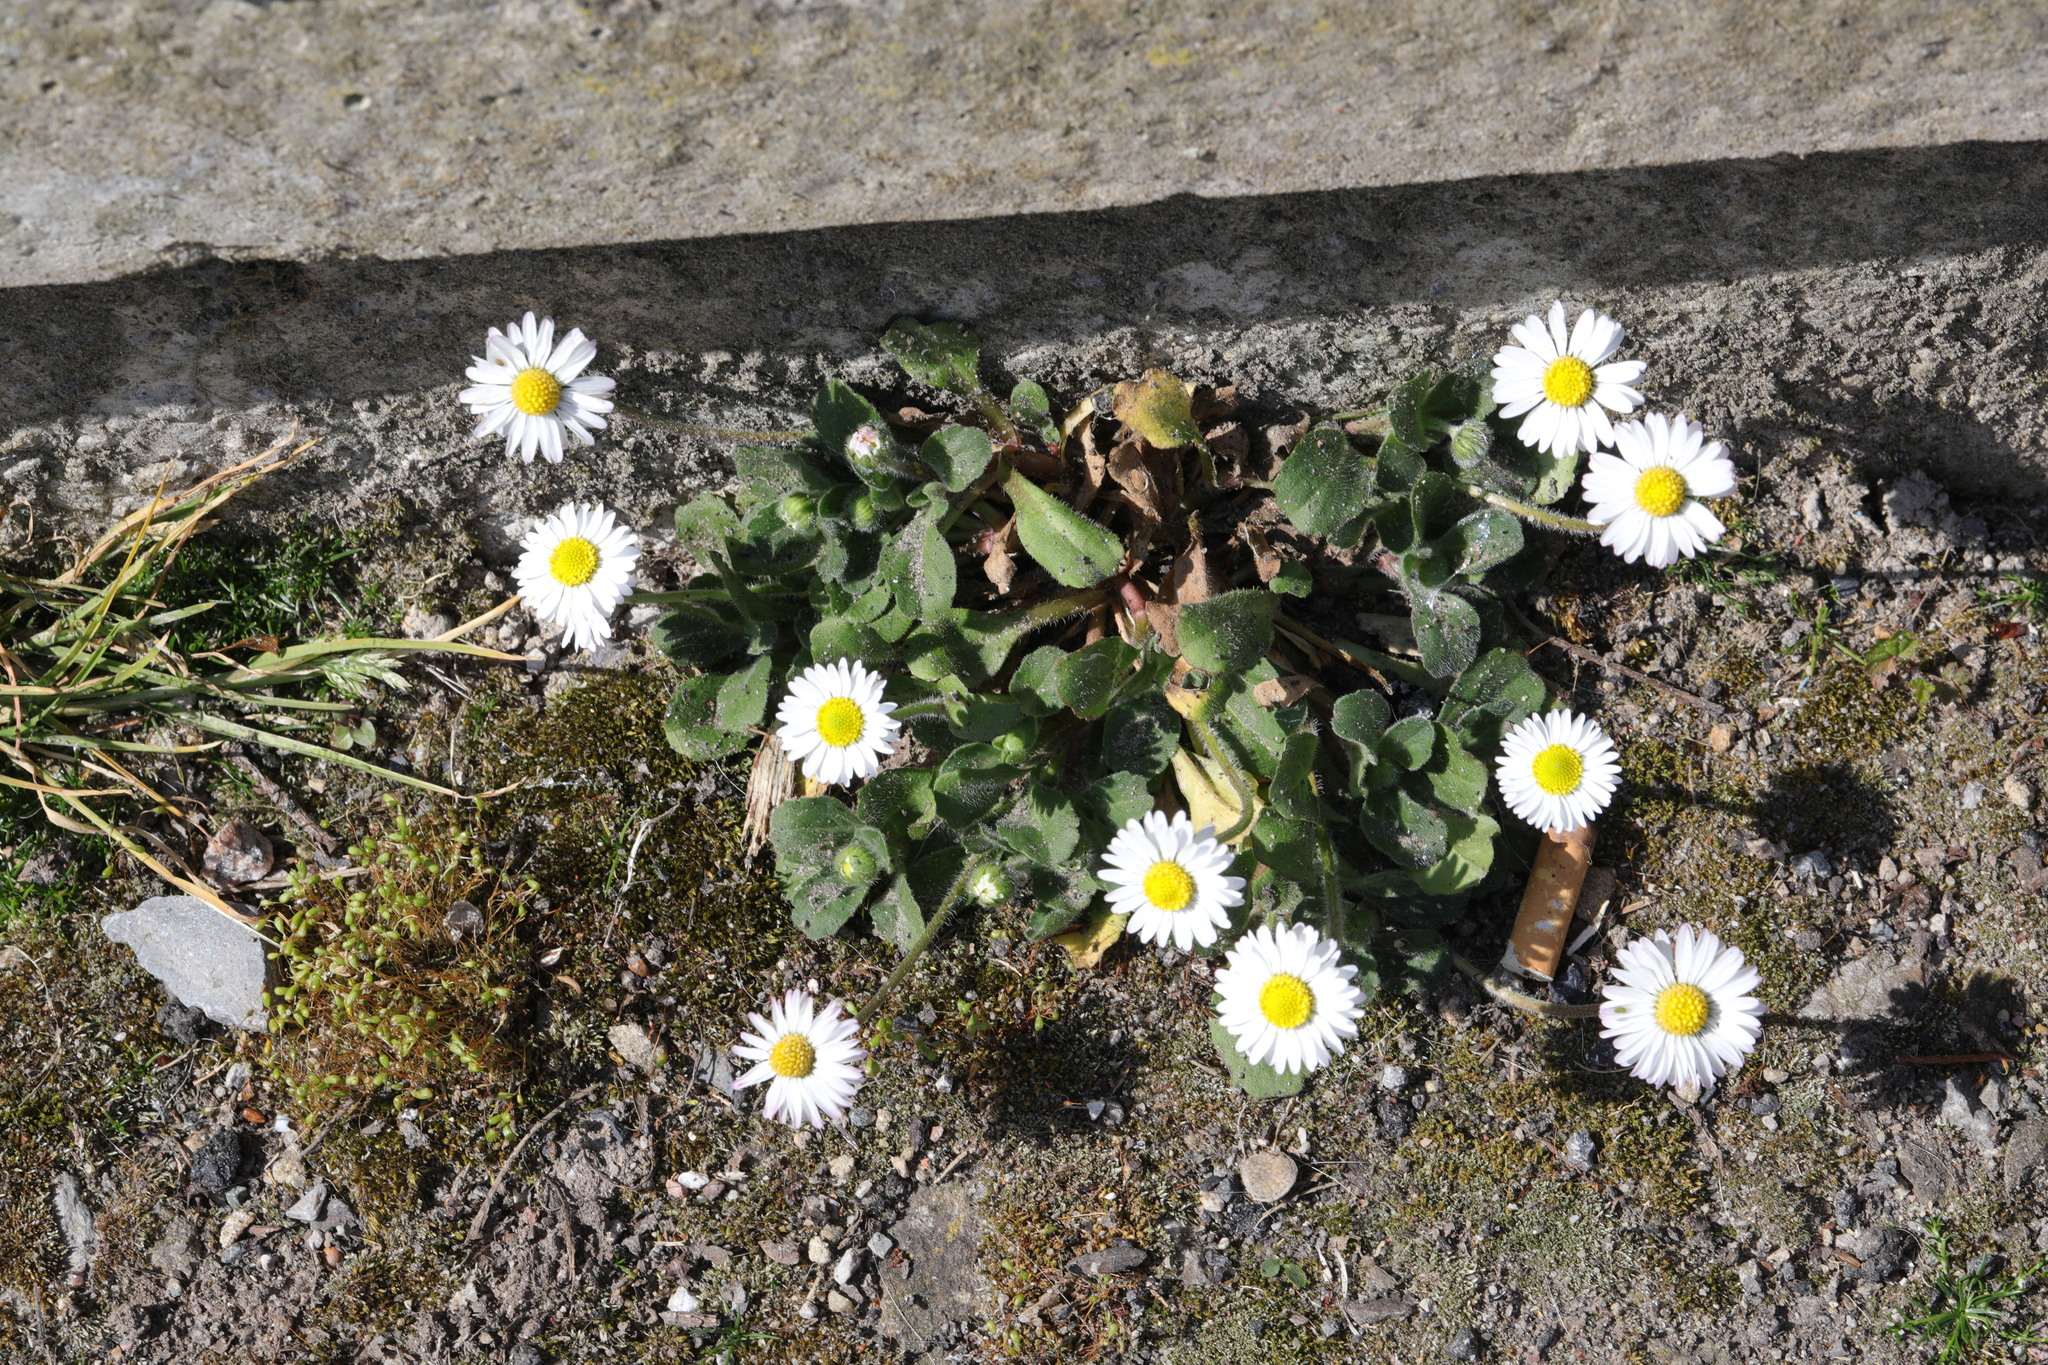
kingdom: Plantae
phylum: Tracheophyta
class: Magnoliopsida
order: Asterales
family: Asteraceae
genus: Bellis
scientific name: Bellis perennis
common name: Lawndaisy
